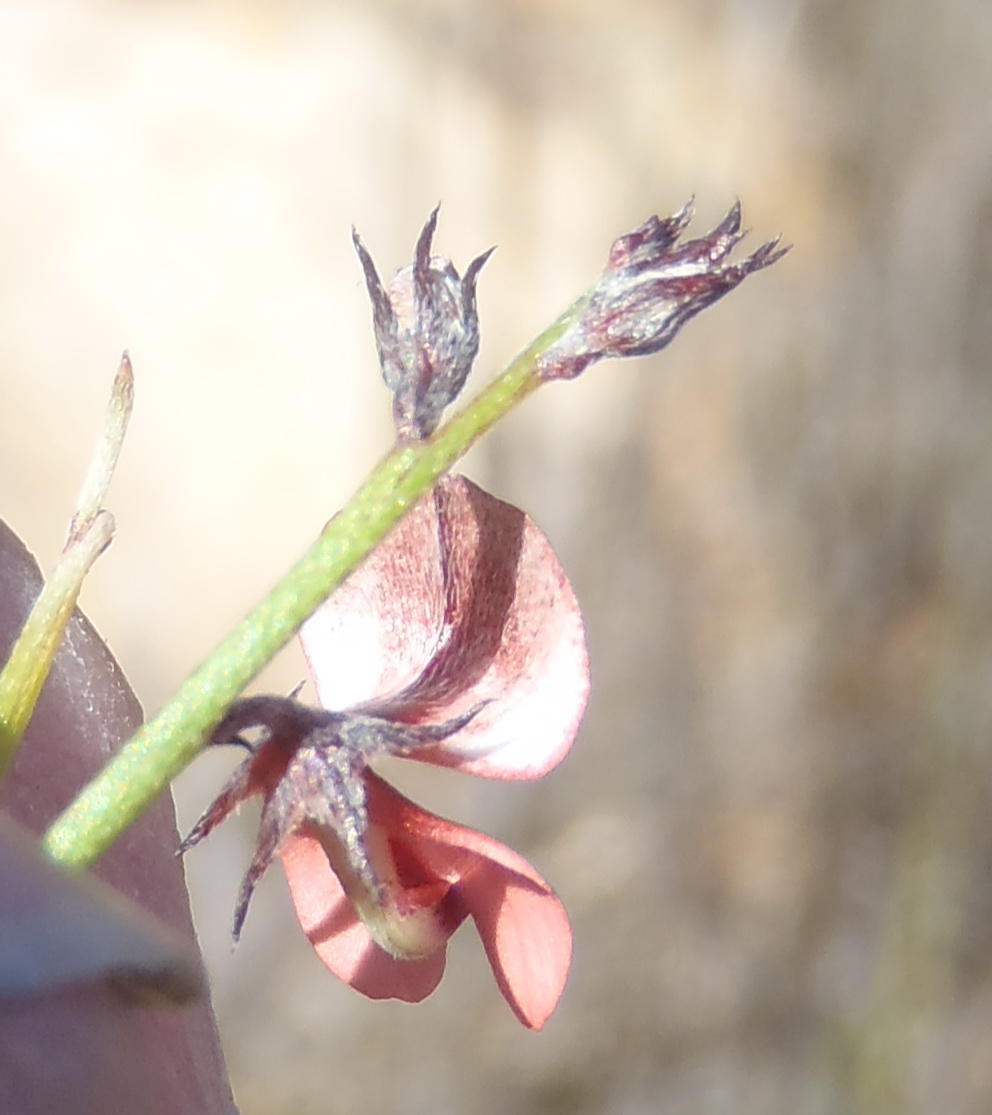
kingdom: Plantae
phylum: Tracheophyta
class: Magnoliopsida
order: Fabales
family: Fabaceae
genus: Indigofera
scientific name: Indigofera leptocarpa
